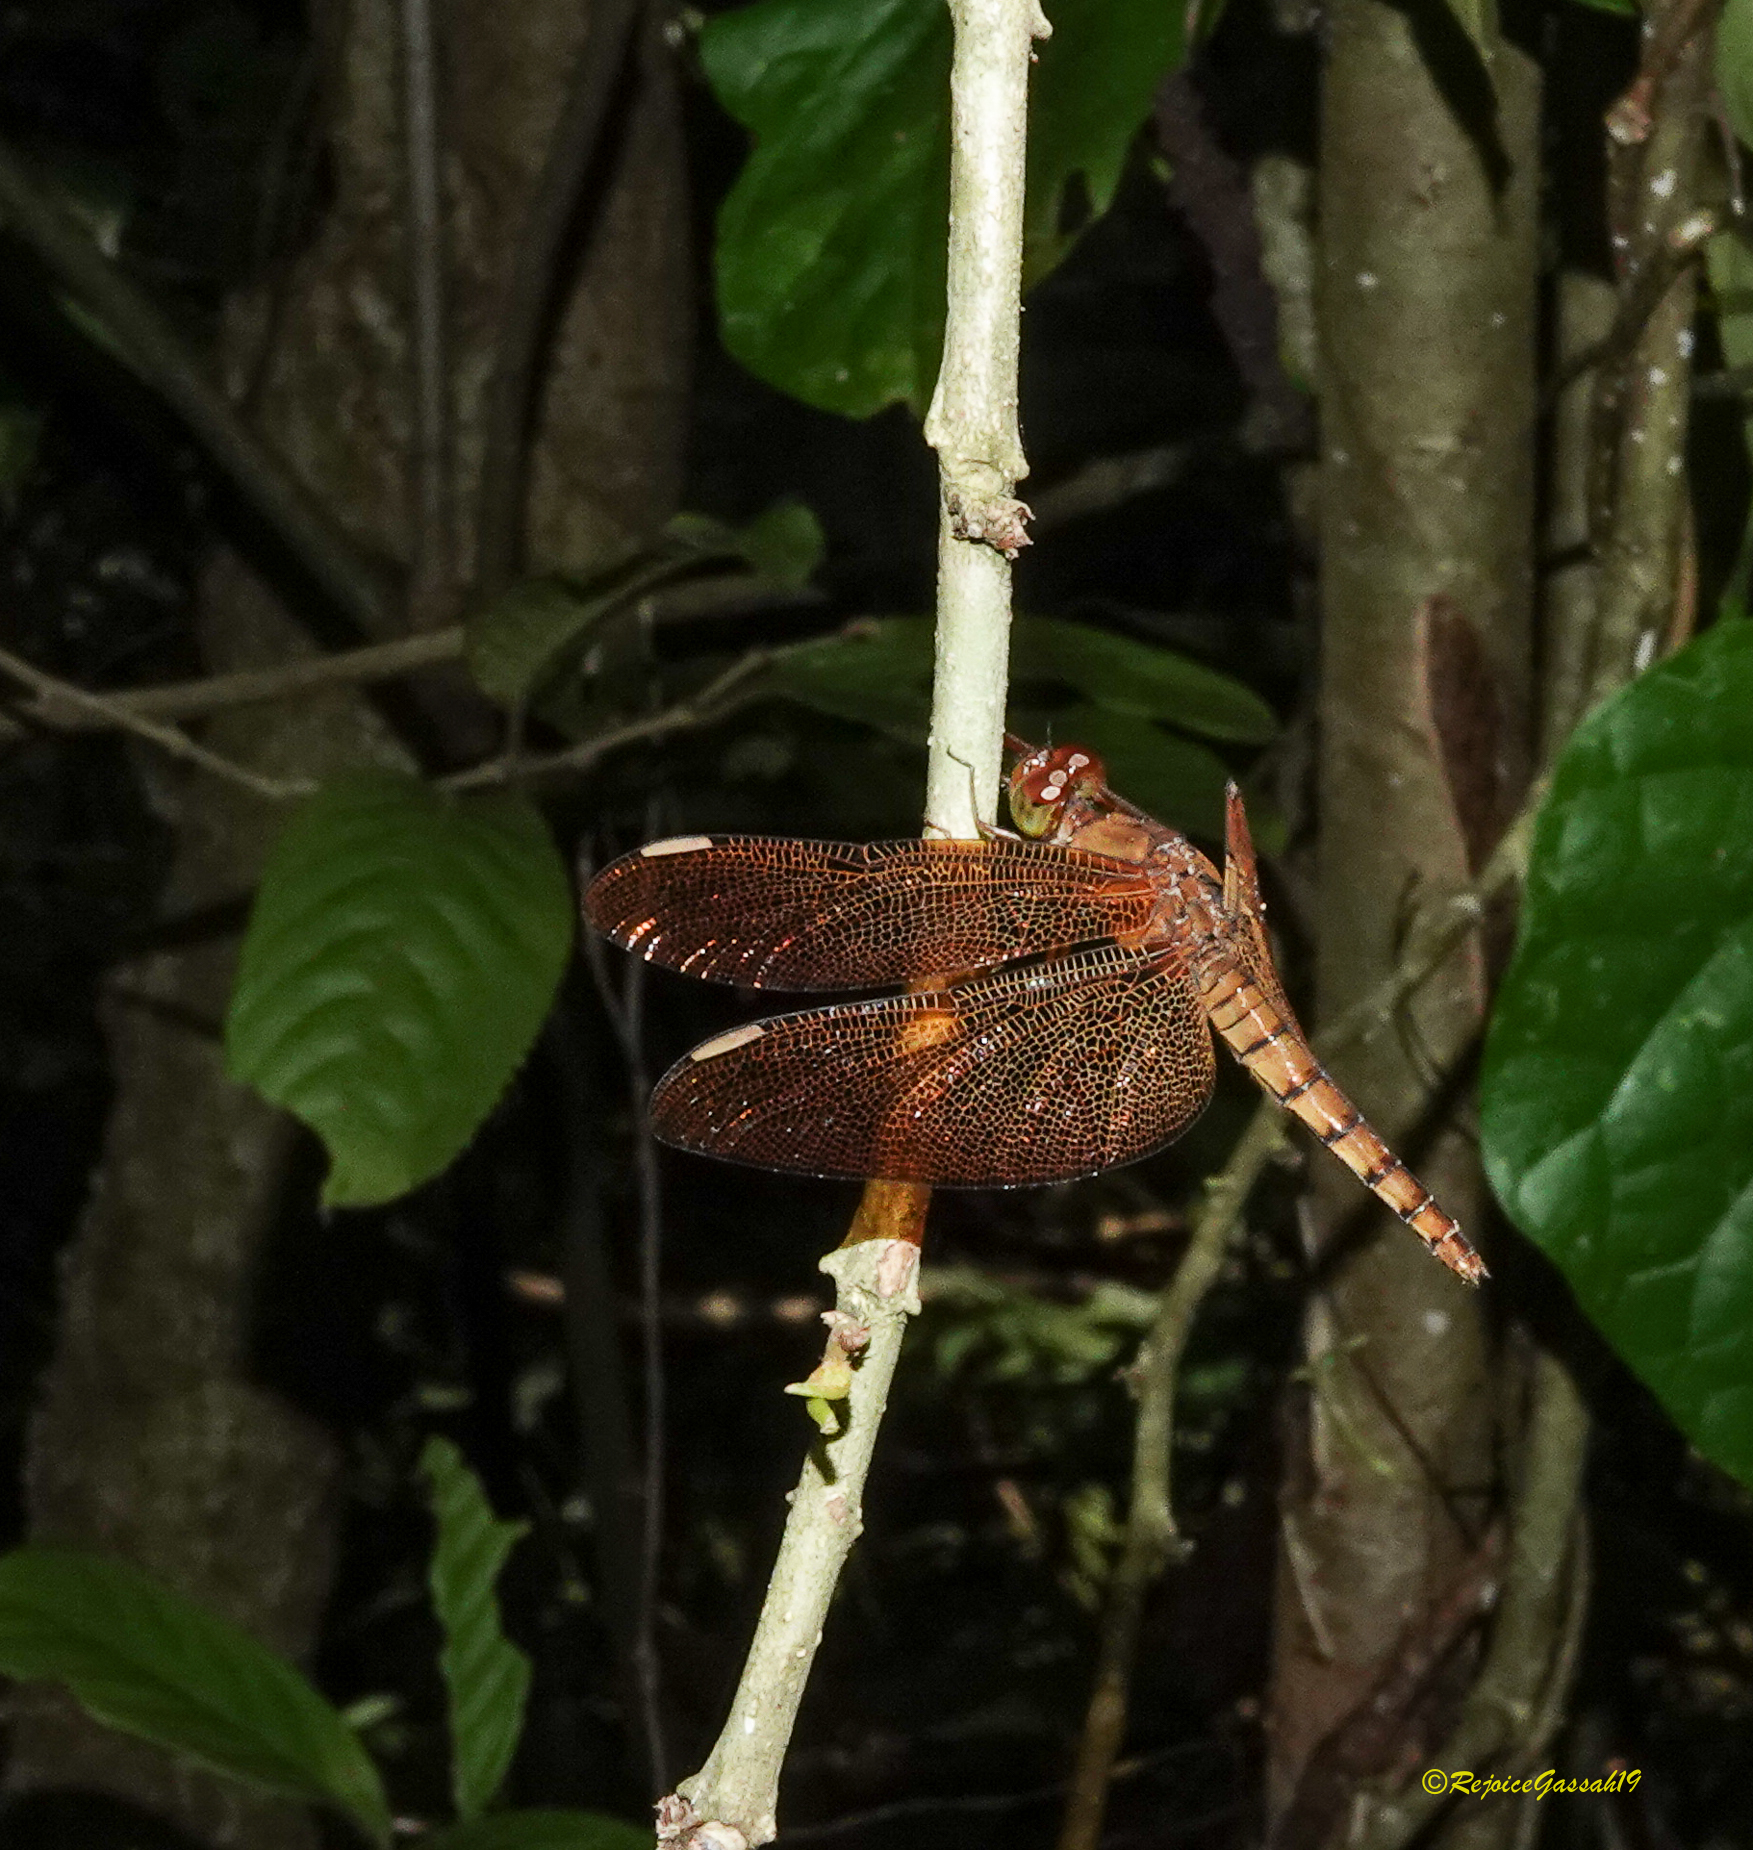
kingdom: Animalia
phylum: Arthropoda
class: Insecta
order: Odonata
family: Libellulidae
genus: Neurothemis
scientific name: Neurothemis fulvia
